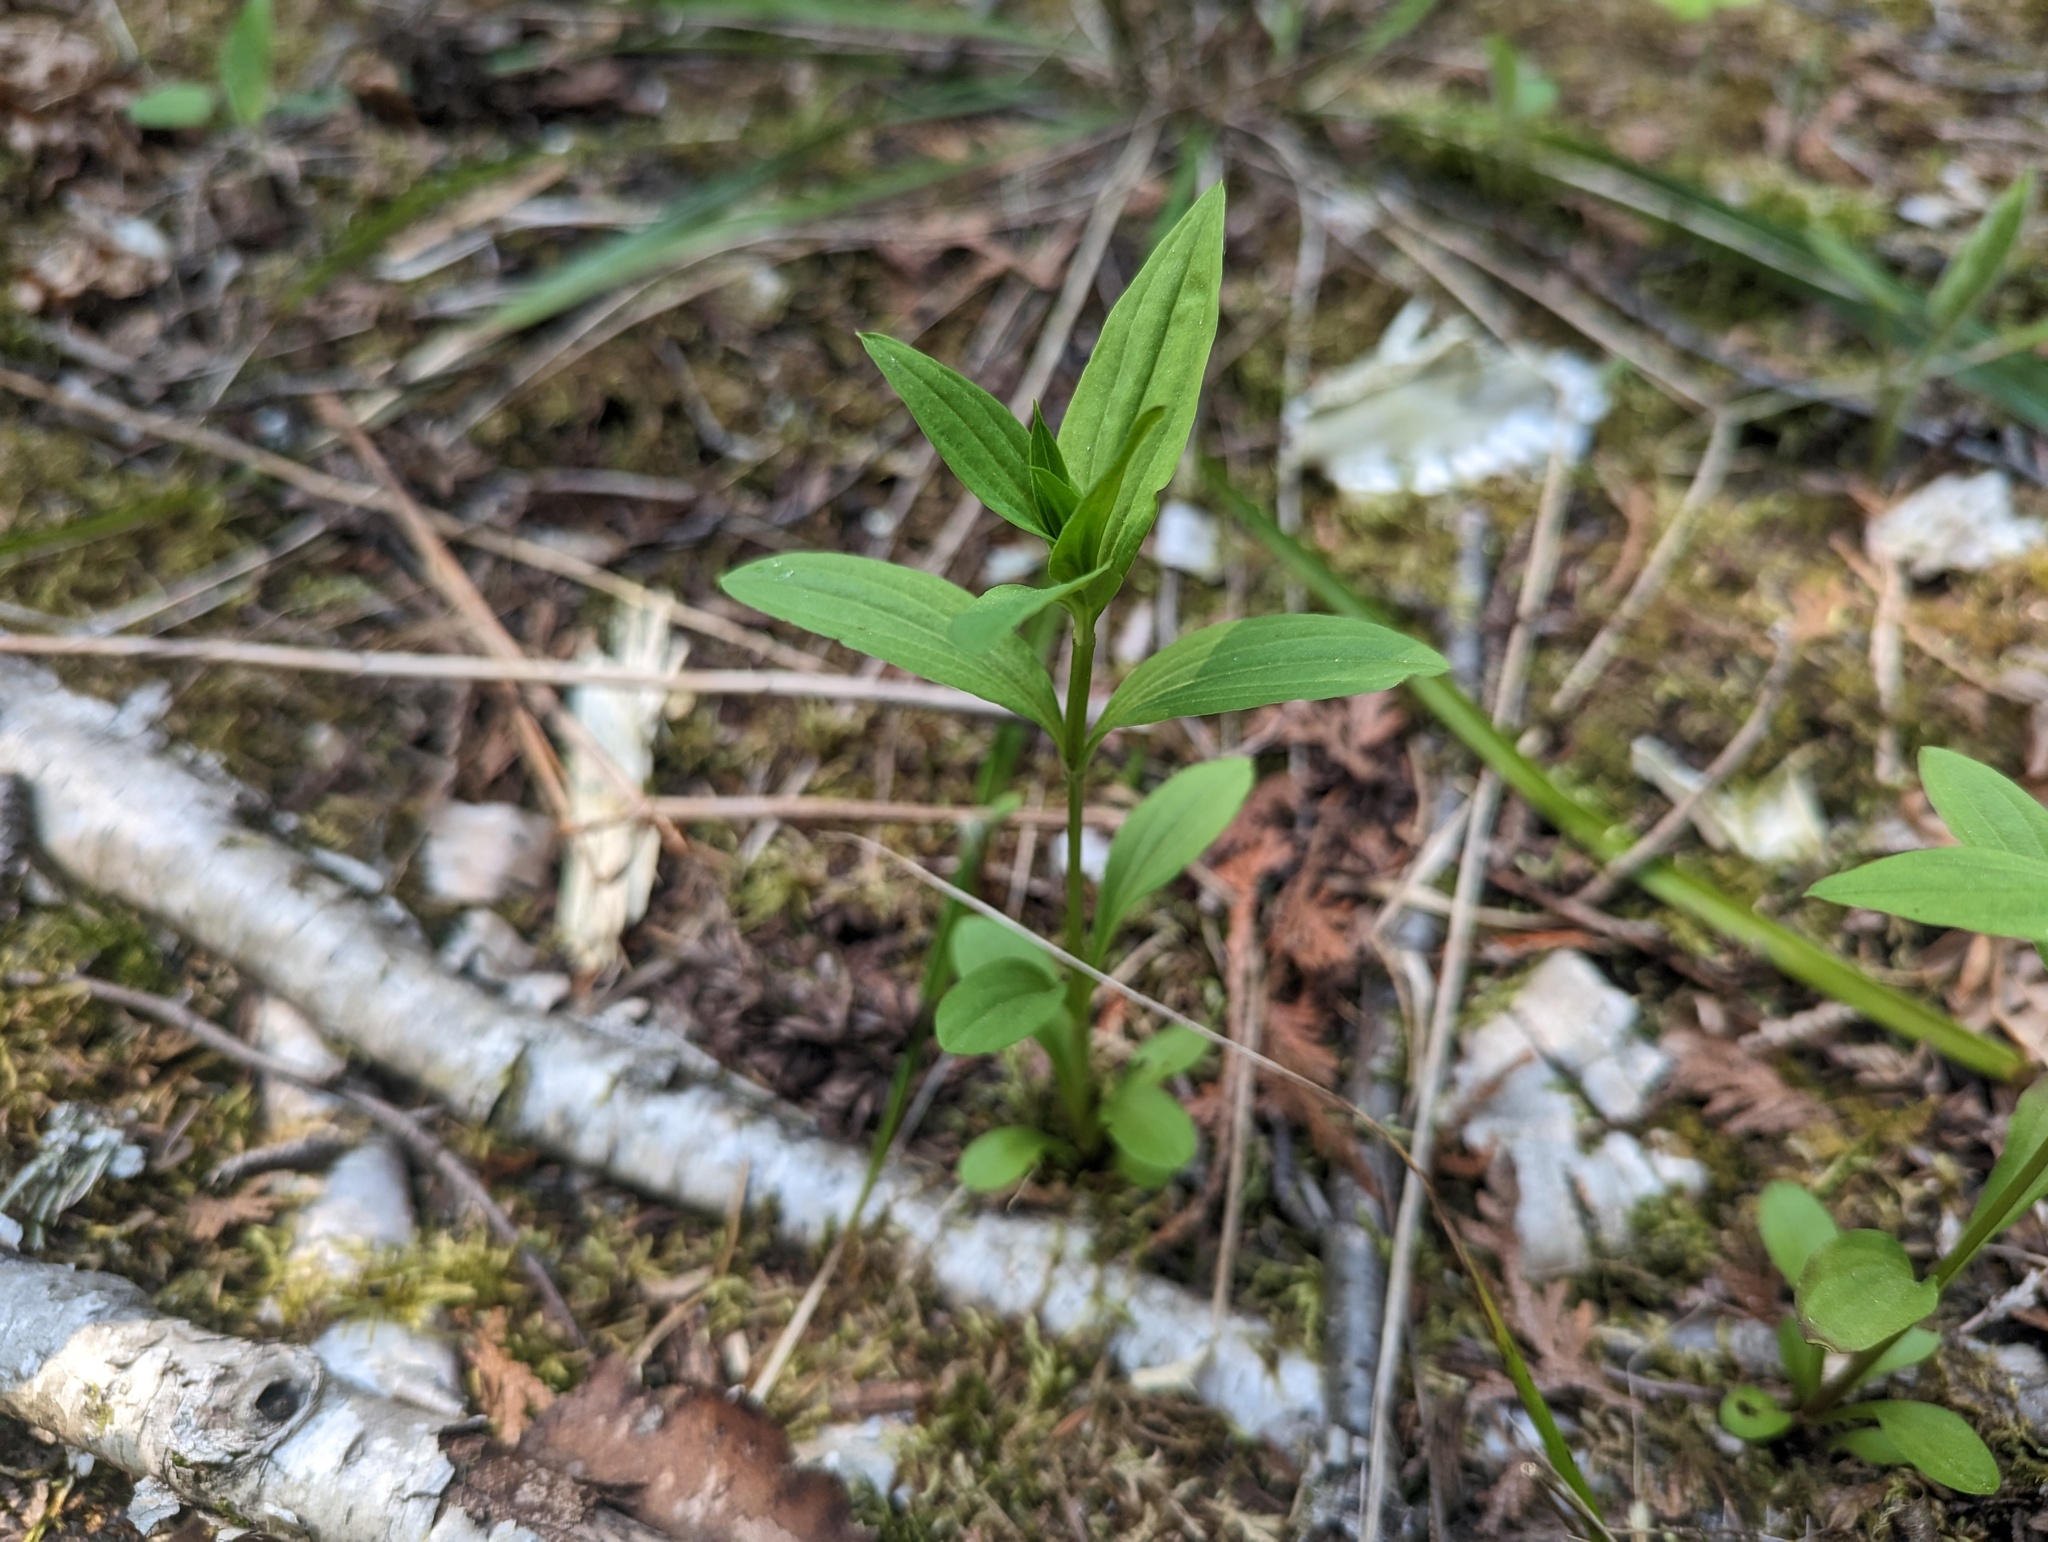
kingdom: Plantae
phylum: Tracheophyta
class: Magnoliopsida
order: Gentianales
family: Gentianaceae
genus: Halenia
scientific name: Halenia deflexa
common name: American spurred gentian
